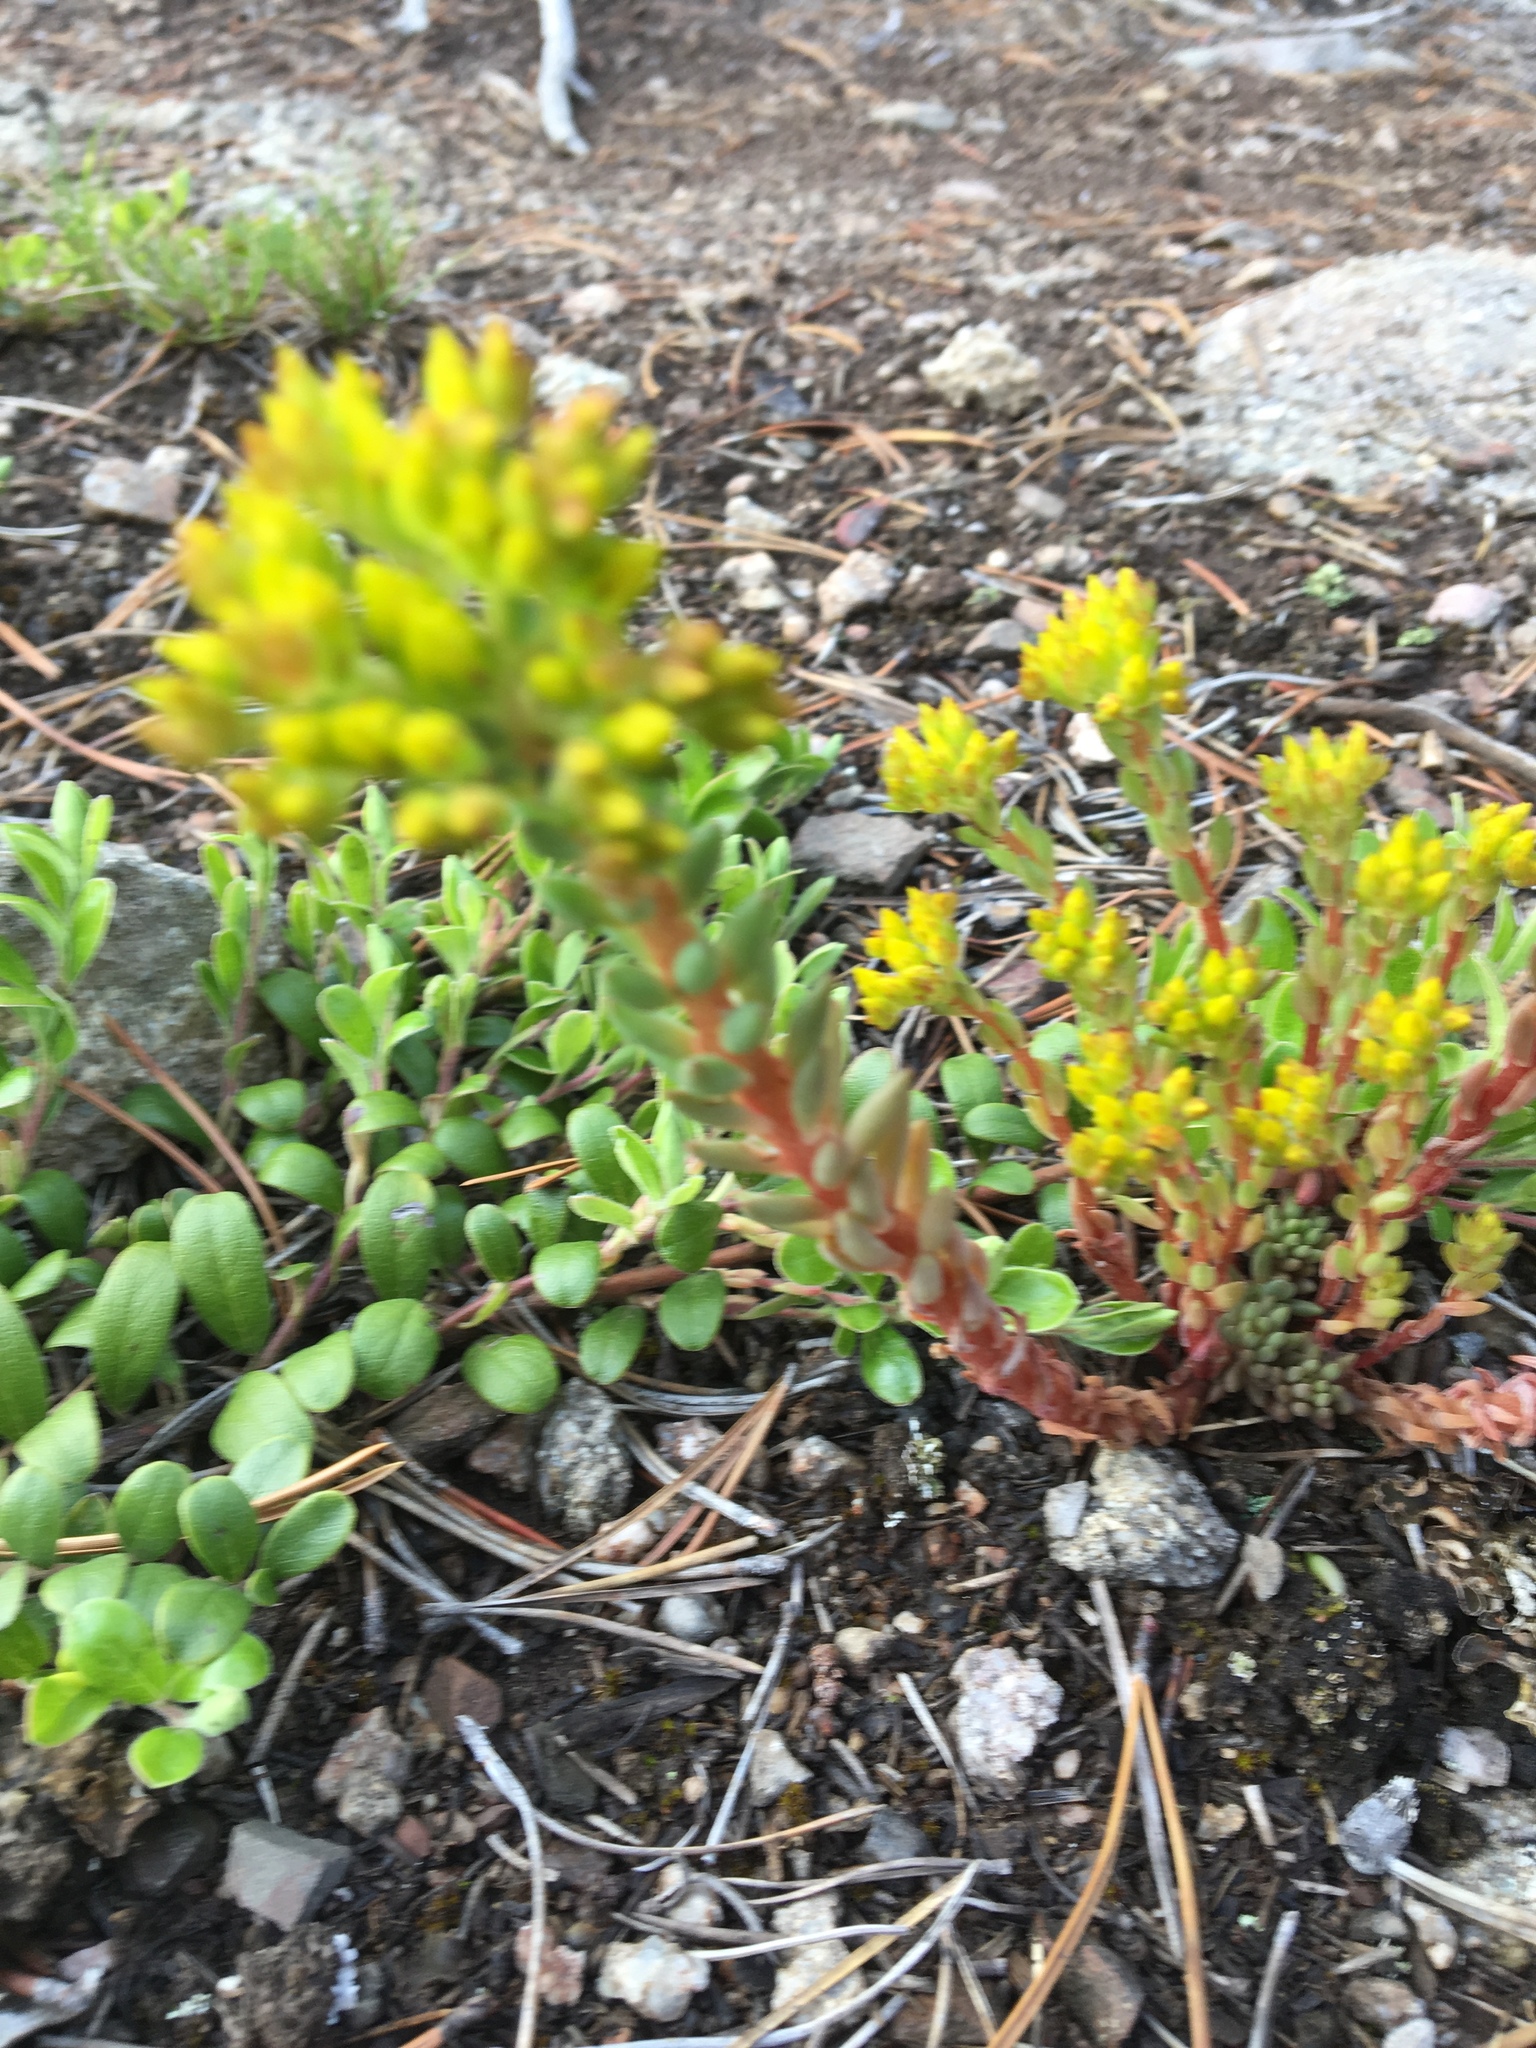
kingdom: Plantae
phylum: Tracheophyta
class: Magnoliopsida
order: Saxifragales
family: Crassulaceae
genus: Sedum
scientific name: Sedum lanceolatum
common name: Common stonecrop
